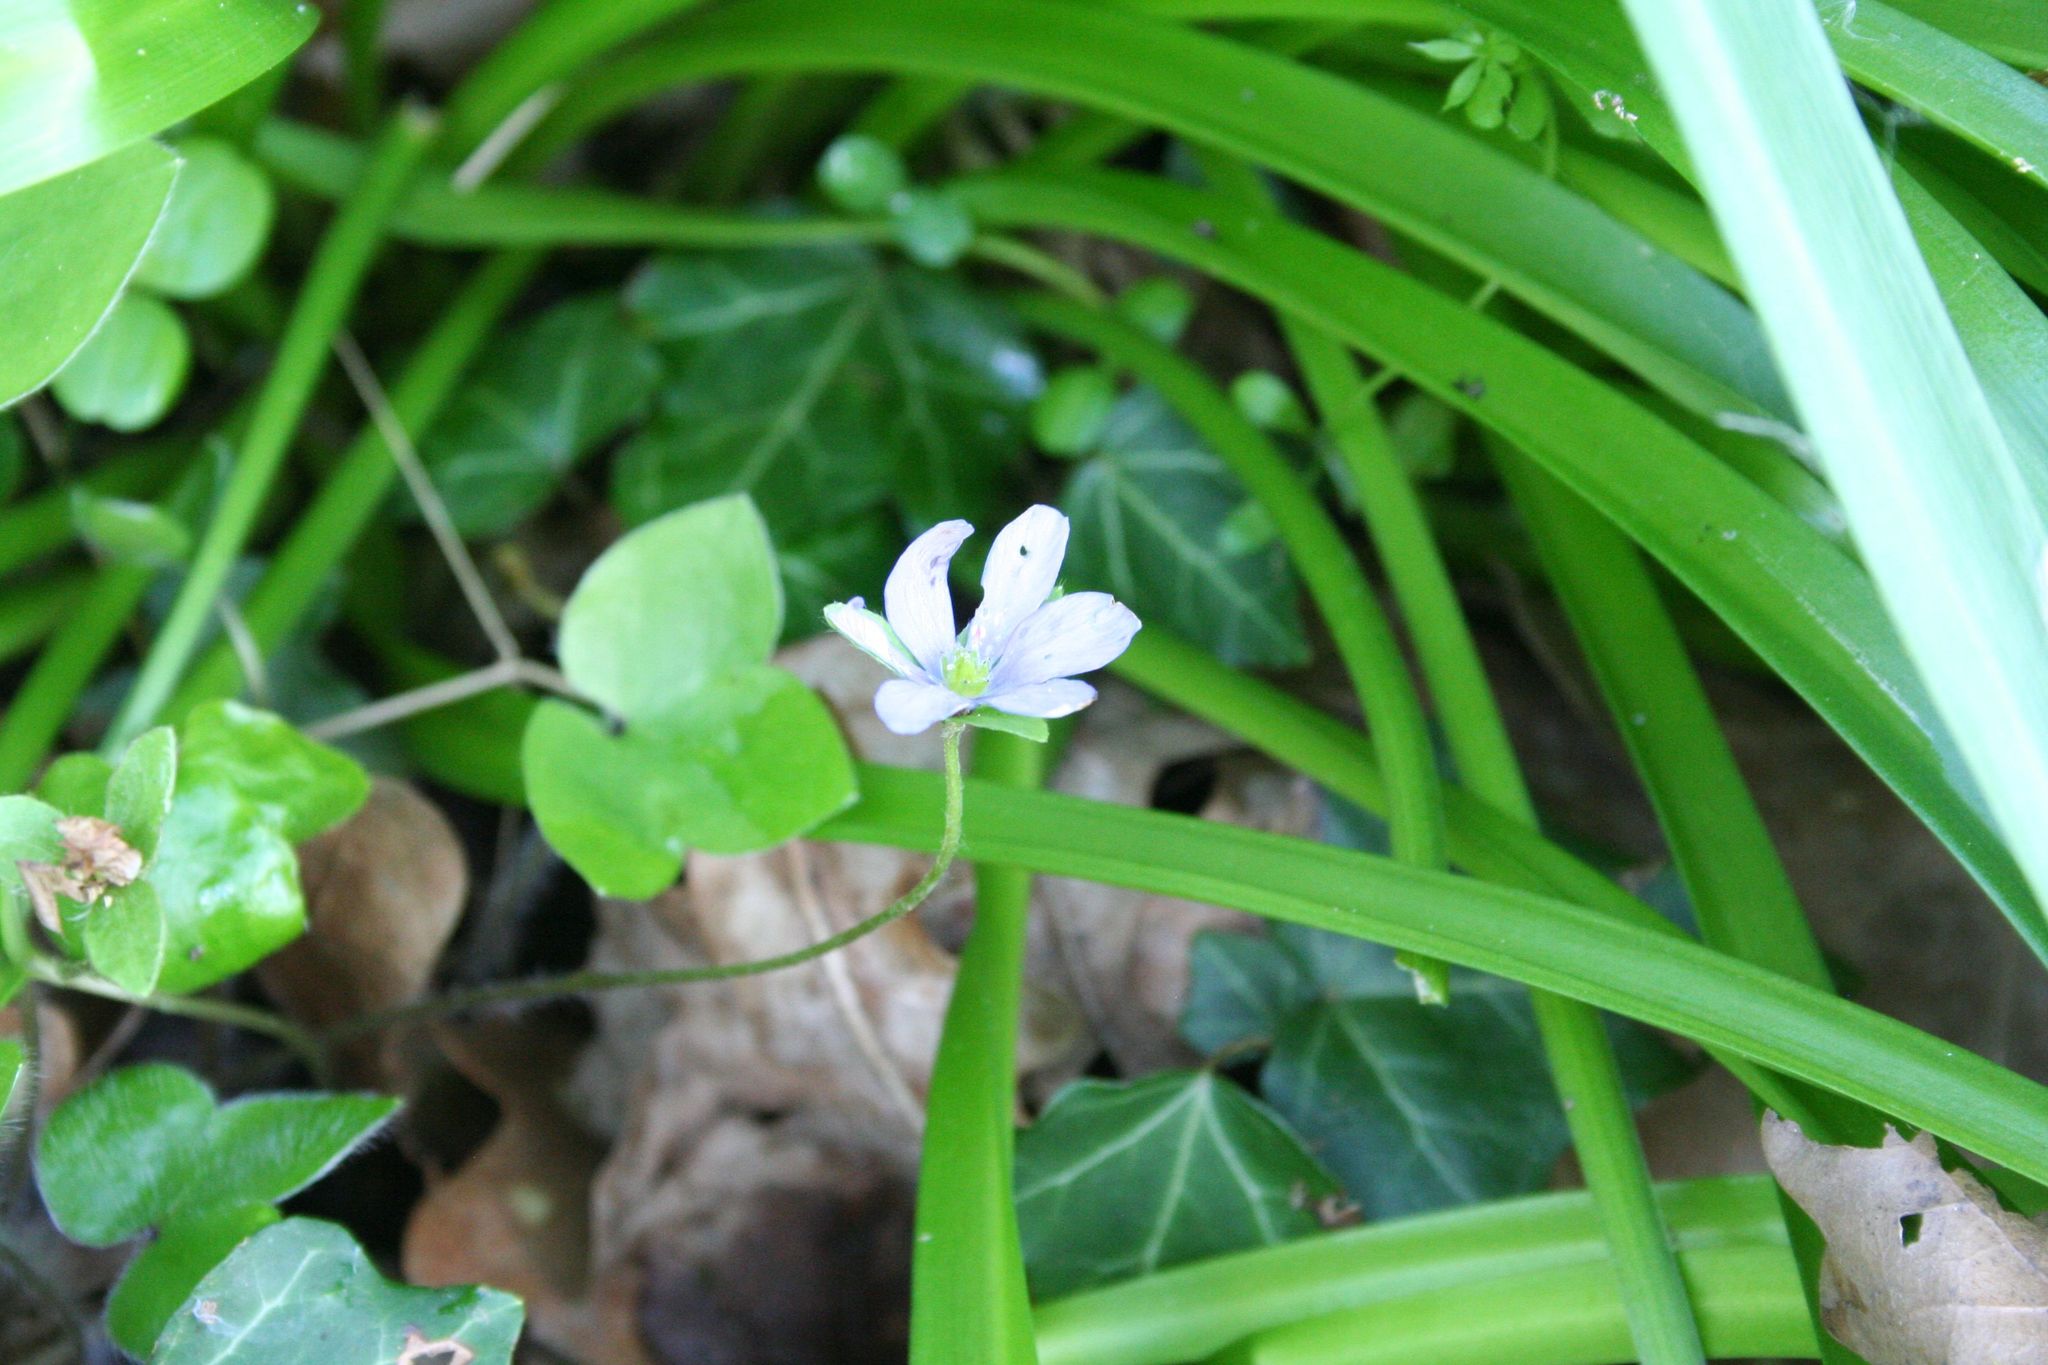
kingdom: Plantae
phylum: Tracheophyta
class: Magnoliopsida
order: Ranunculales
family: Ranunculaceae
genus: Hepatica
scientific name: Hepatica nobilis
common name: Liverleaf
